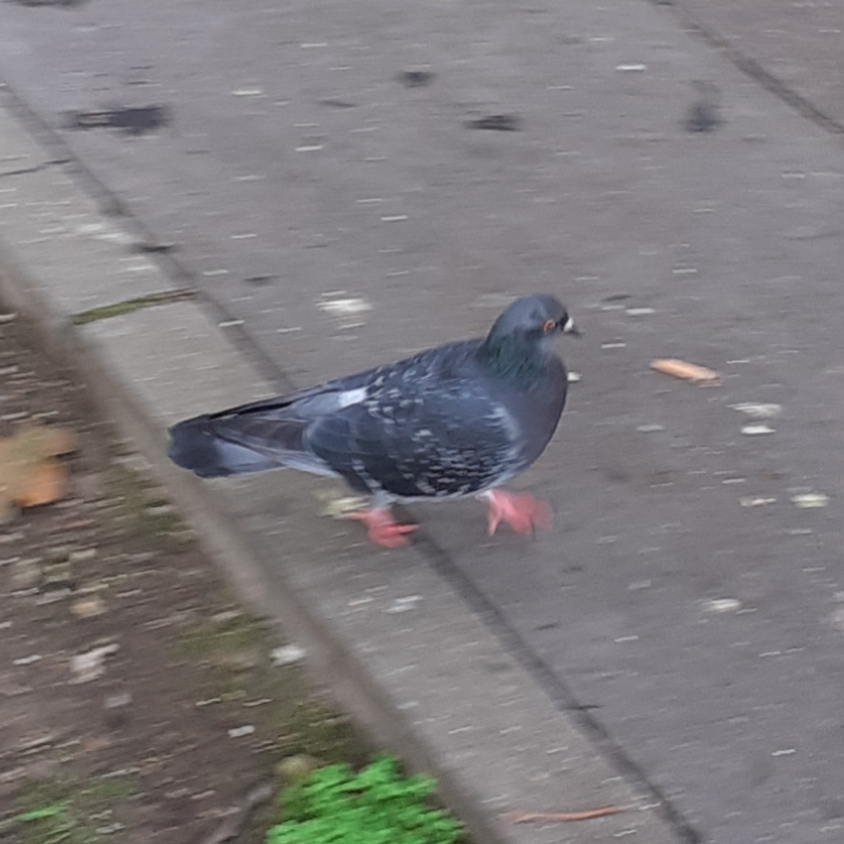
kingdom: Animalia
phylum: Chordata
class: Aves
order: Columbiformes
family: Columbidae
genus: Columba
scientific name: Columba livia
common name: Rock pigeon
